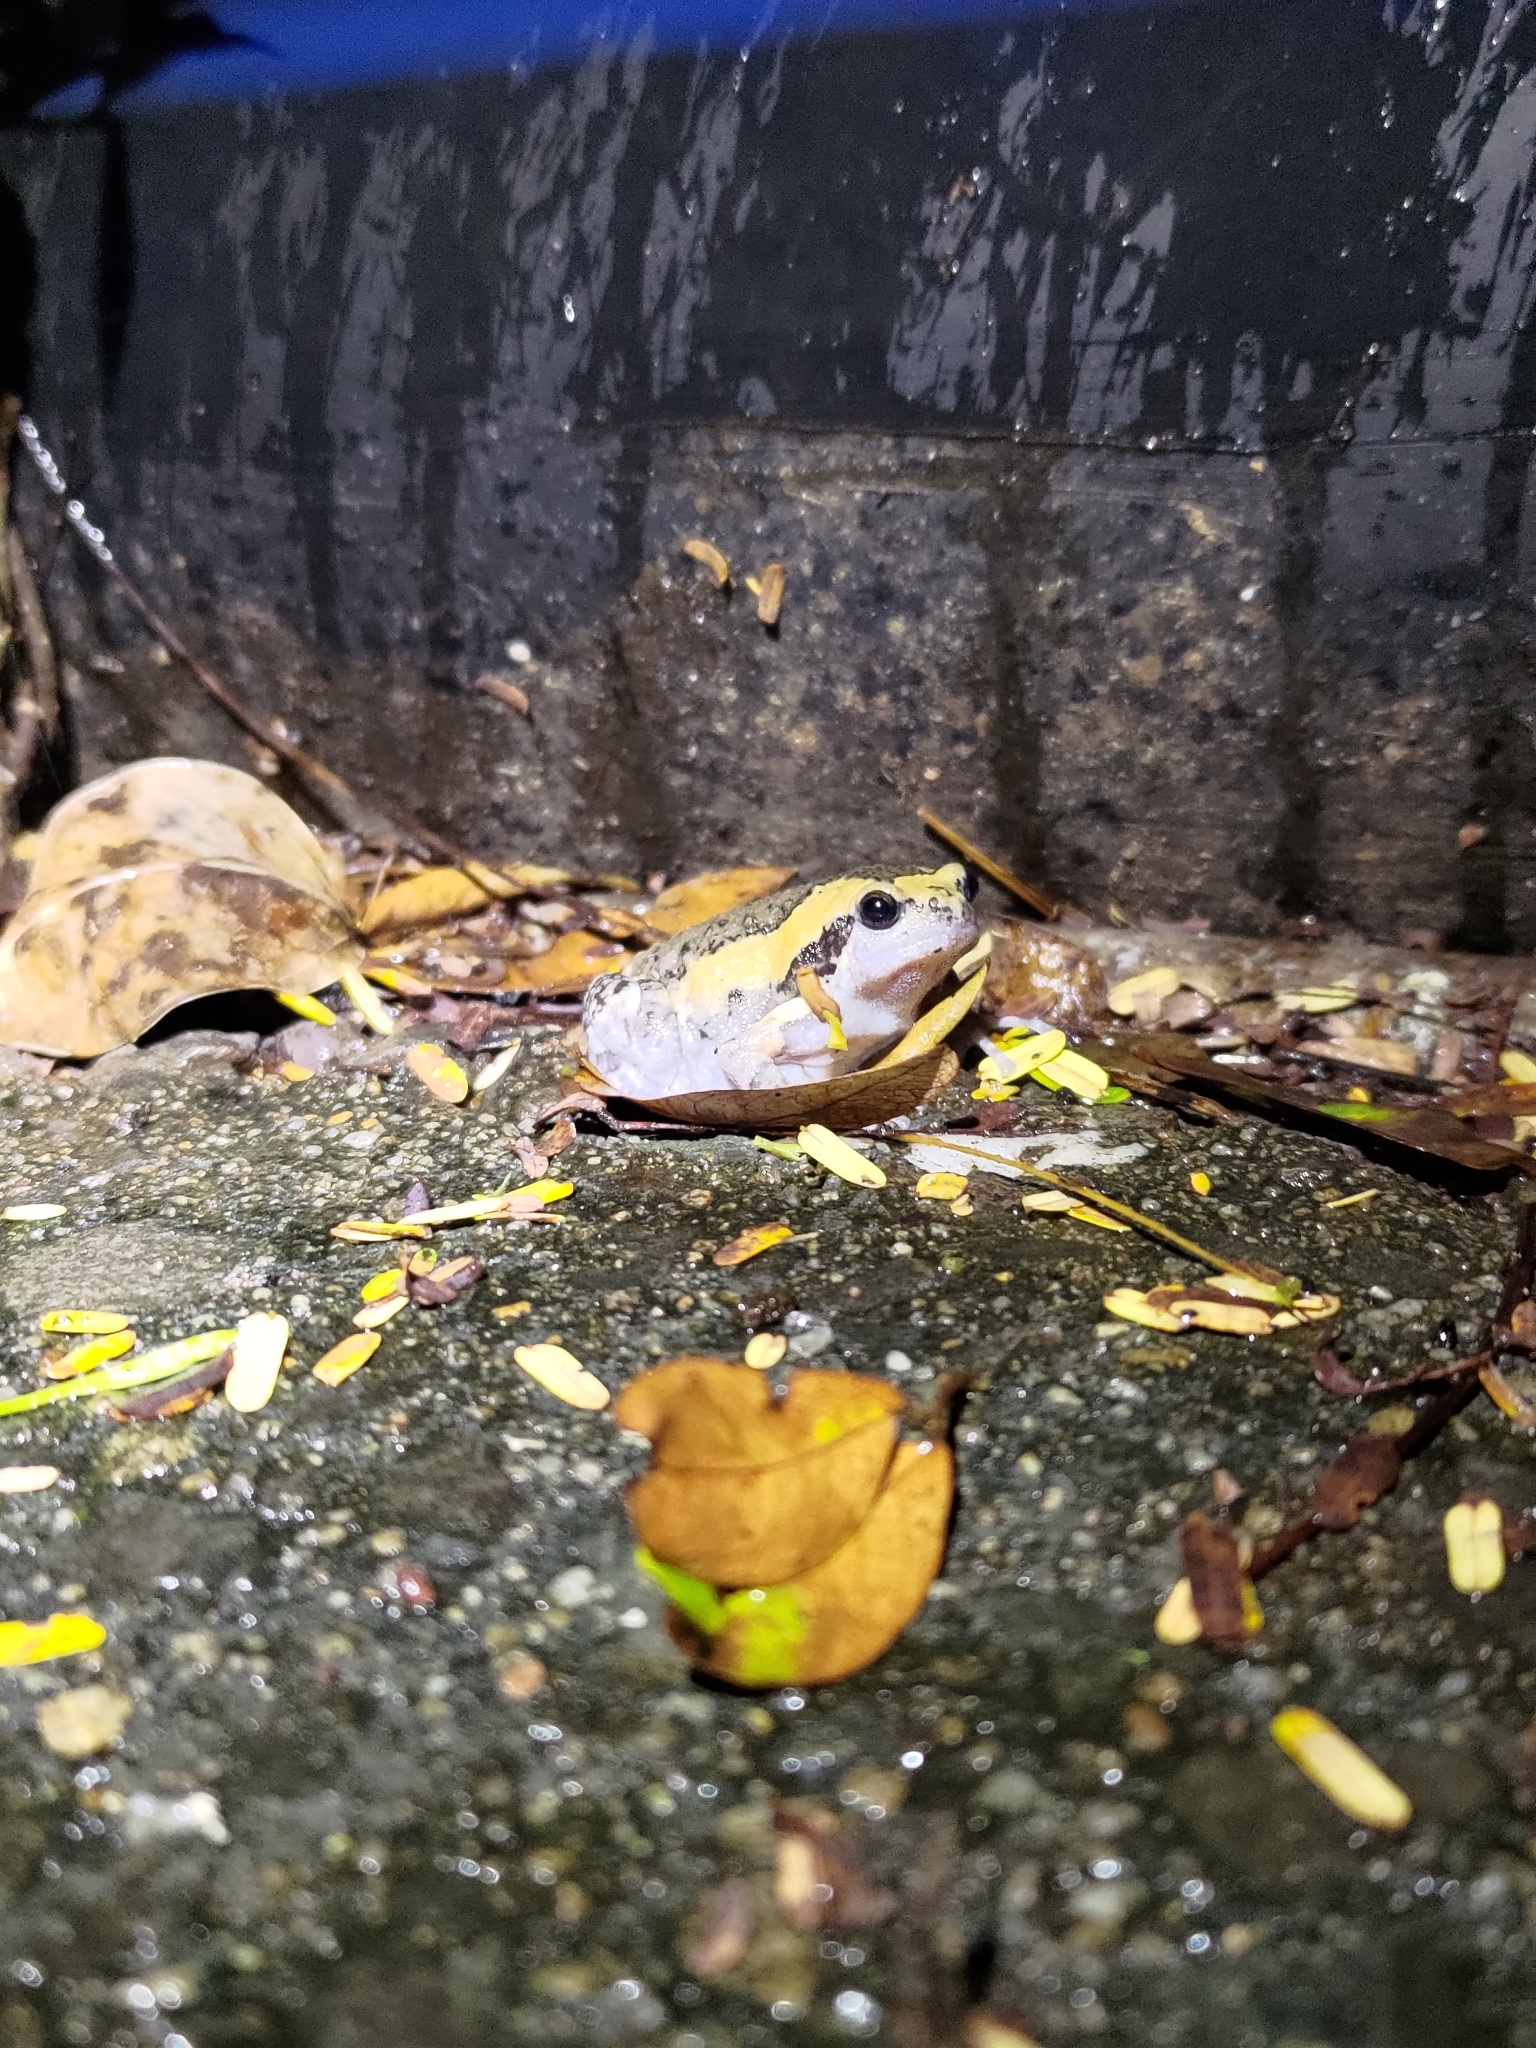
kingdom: Animalia
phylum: Chordata
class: Amphibia
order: Anura
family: Microhylidae
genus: Kaloula
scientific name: Kaloula pulchra
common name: Common,banded bullfrog
